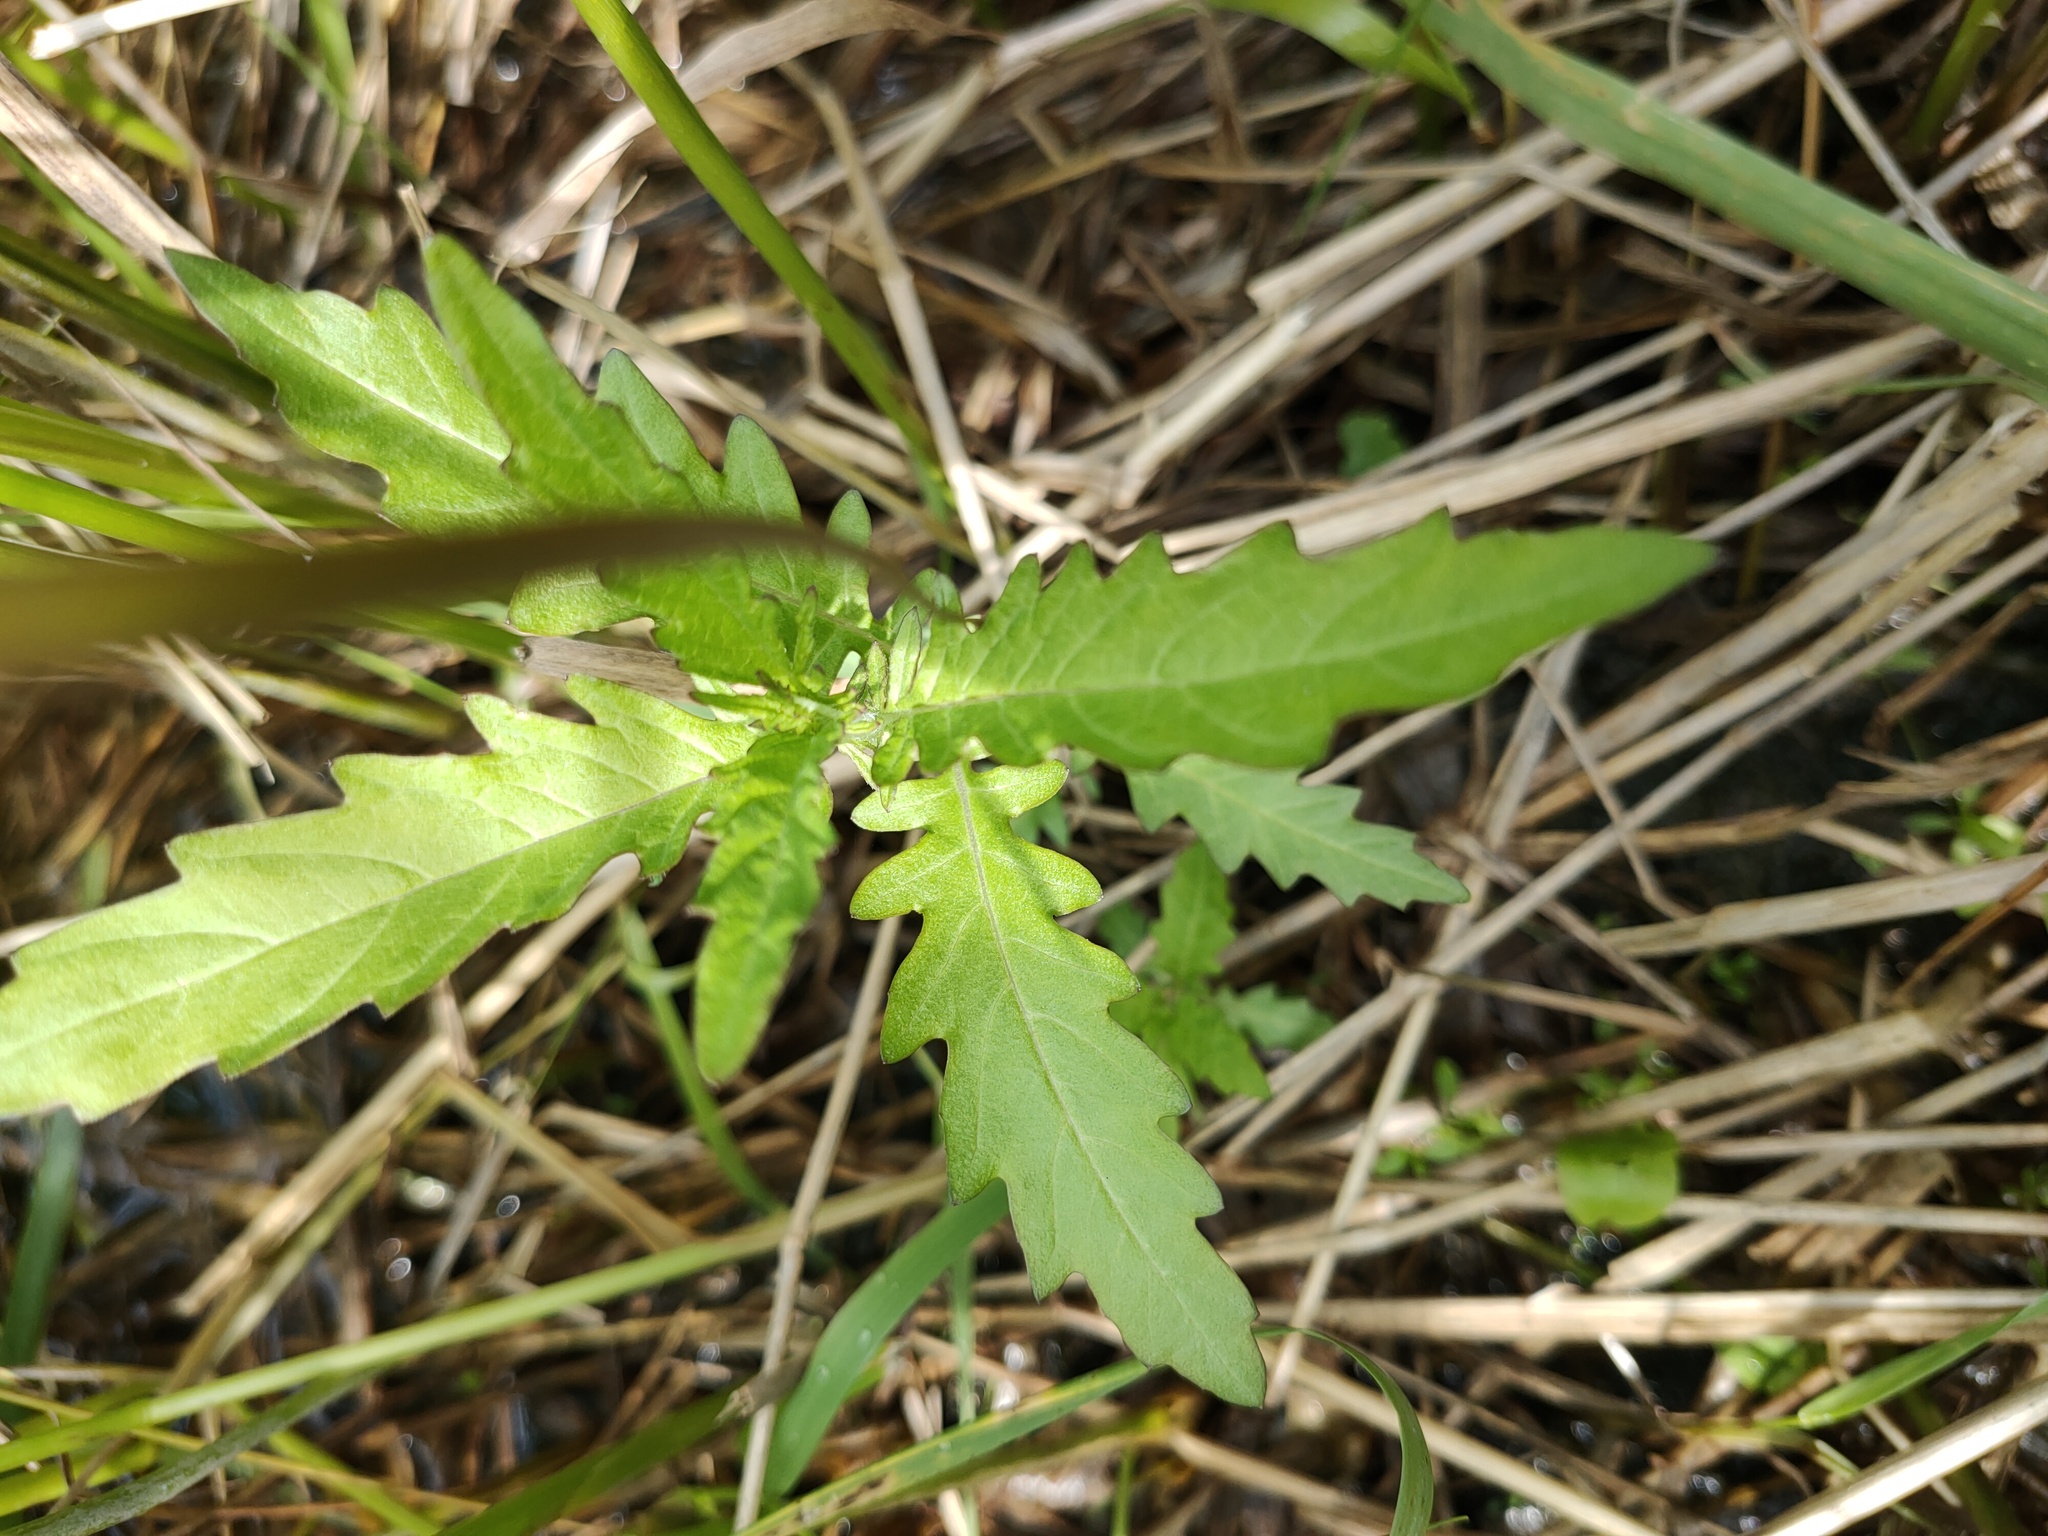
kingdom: Plantae
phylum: Tracheophyta
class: Magnoliopsida
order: Lamiales
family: Lamiaceae
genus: Lycopus
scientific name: Lycopus europaeus
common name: European bugleweed
